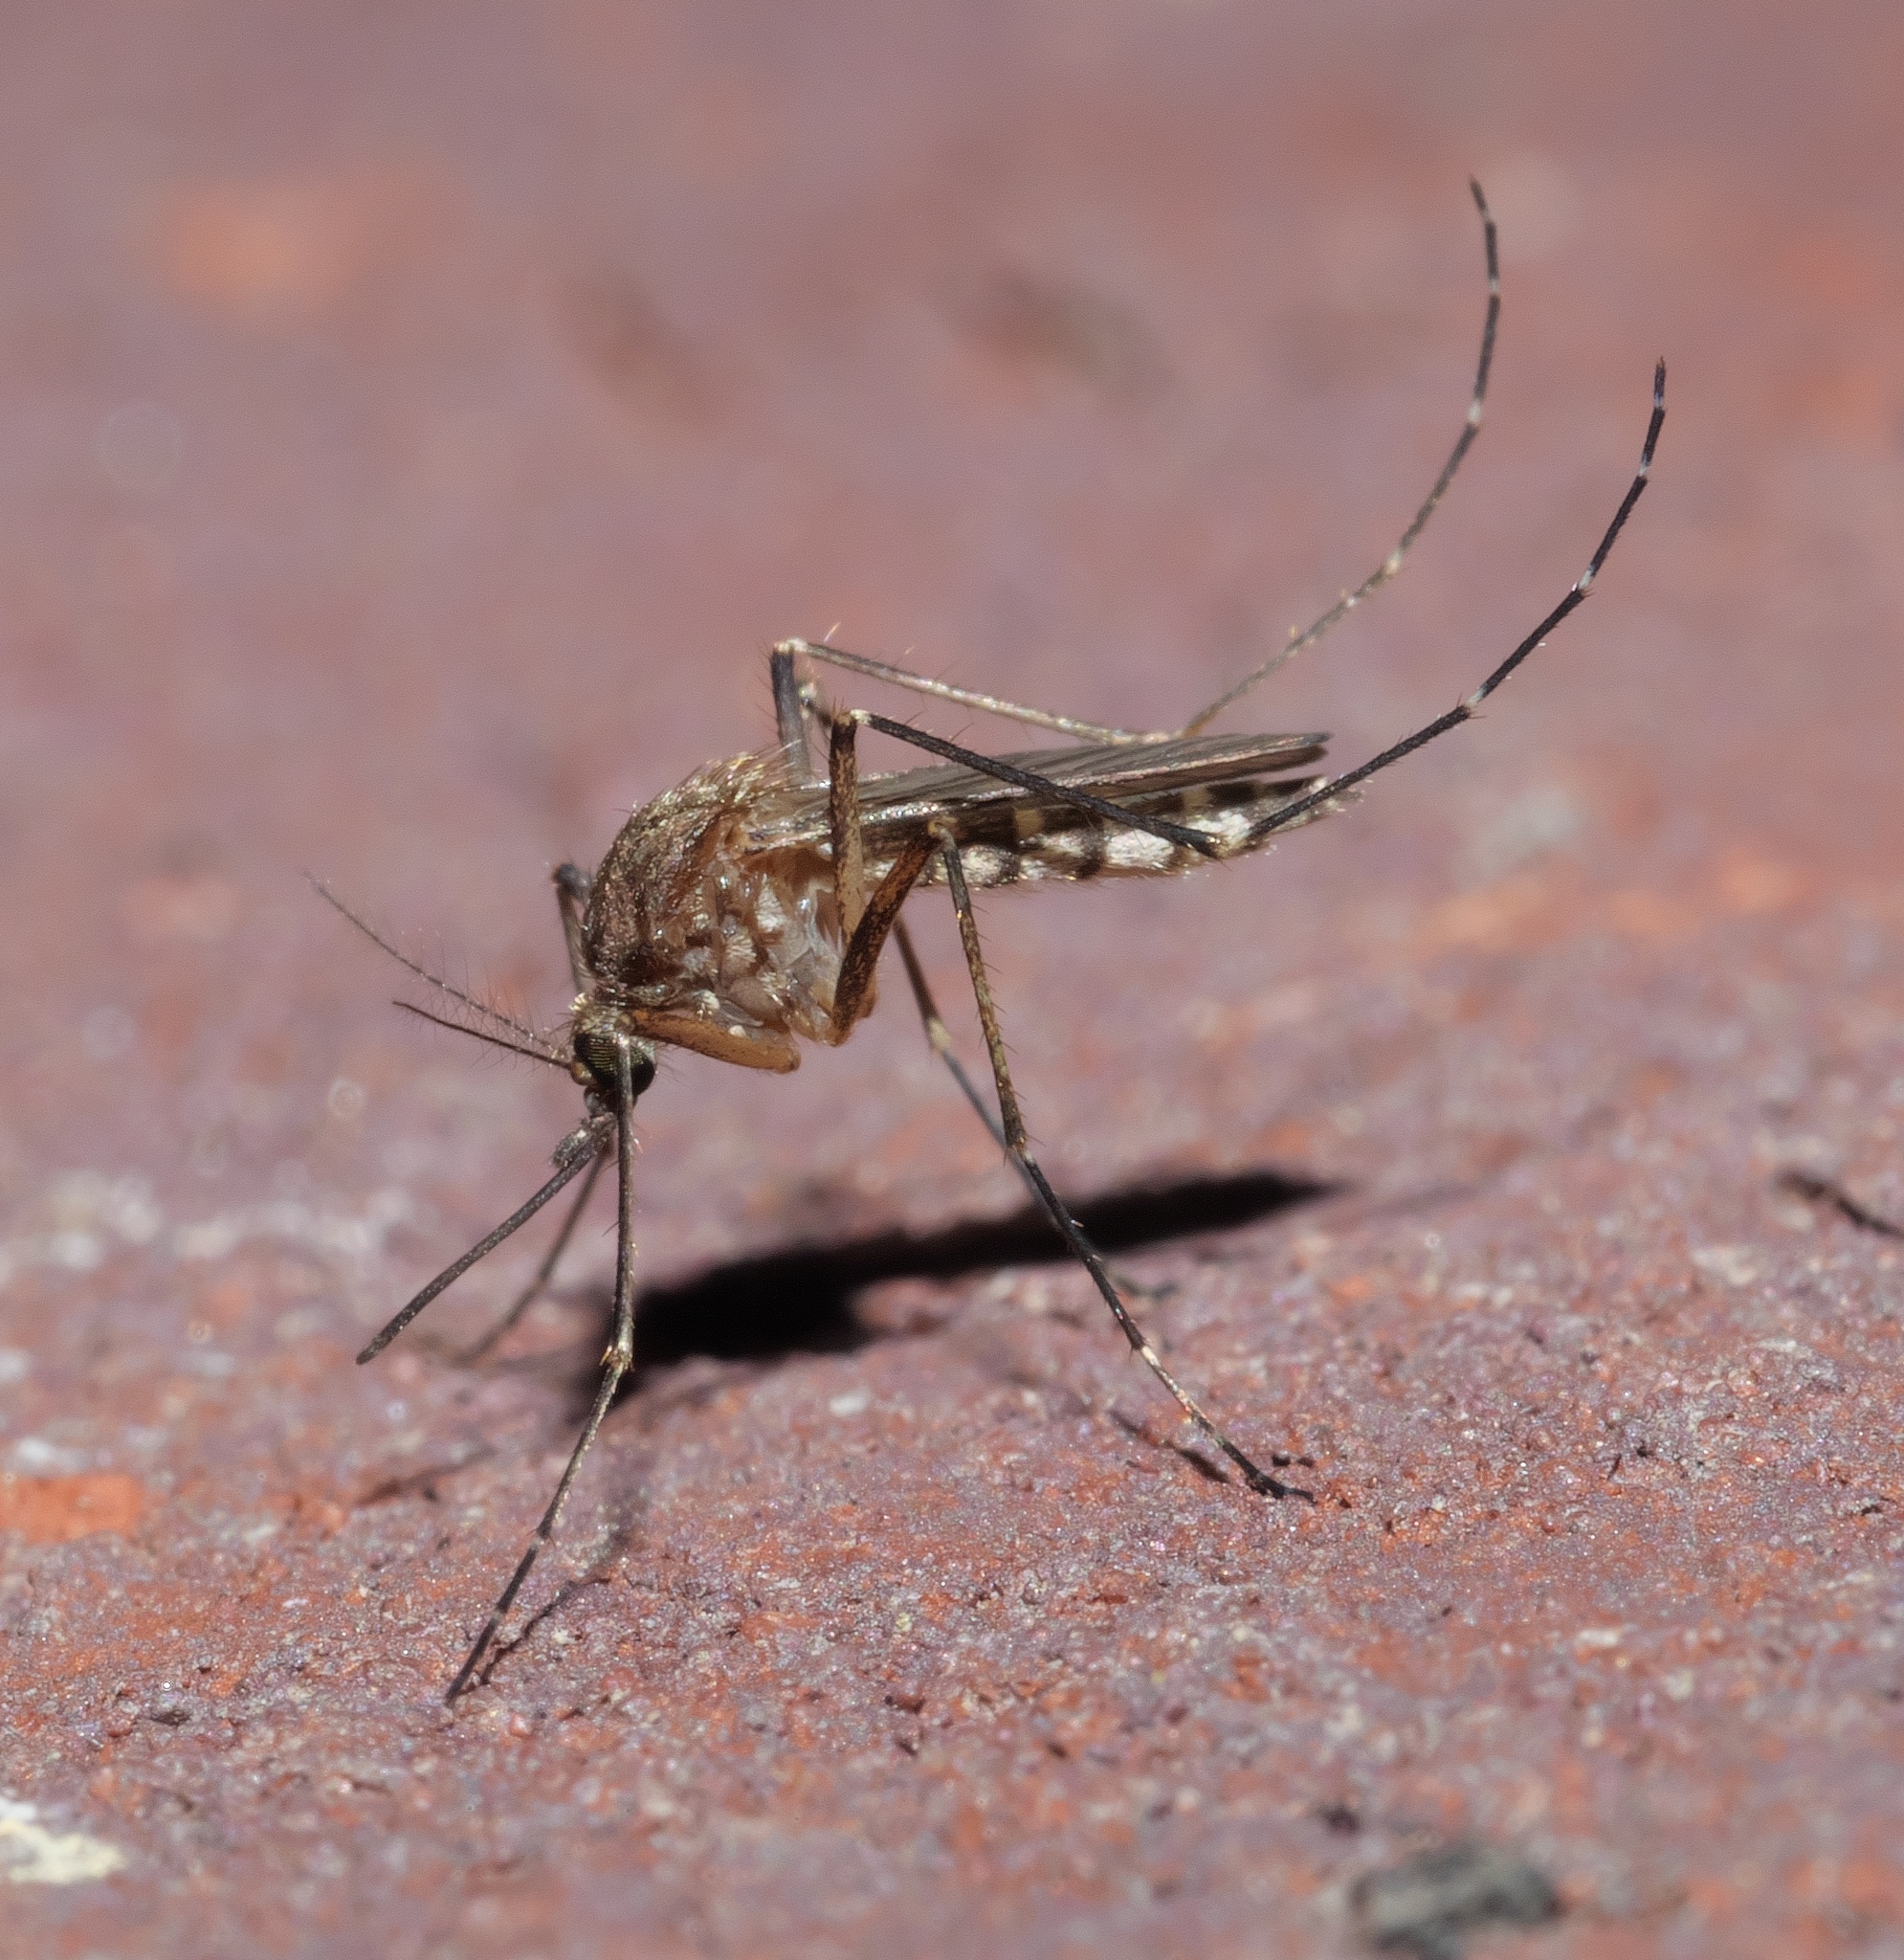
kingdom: Animalia
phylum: Arthropoda
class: Insecta
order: Diptera
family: Culicidae
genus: Aedes
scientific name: Aedes vexans
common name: Inland floodwater mosquito
